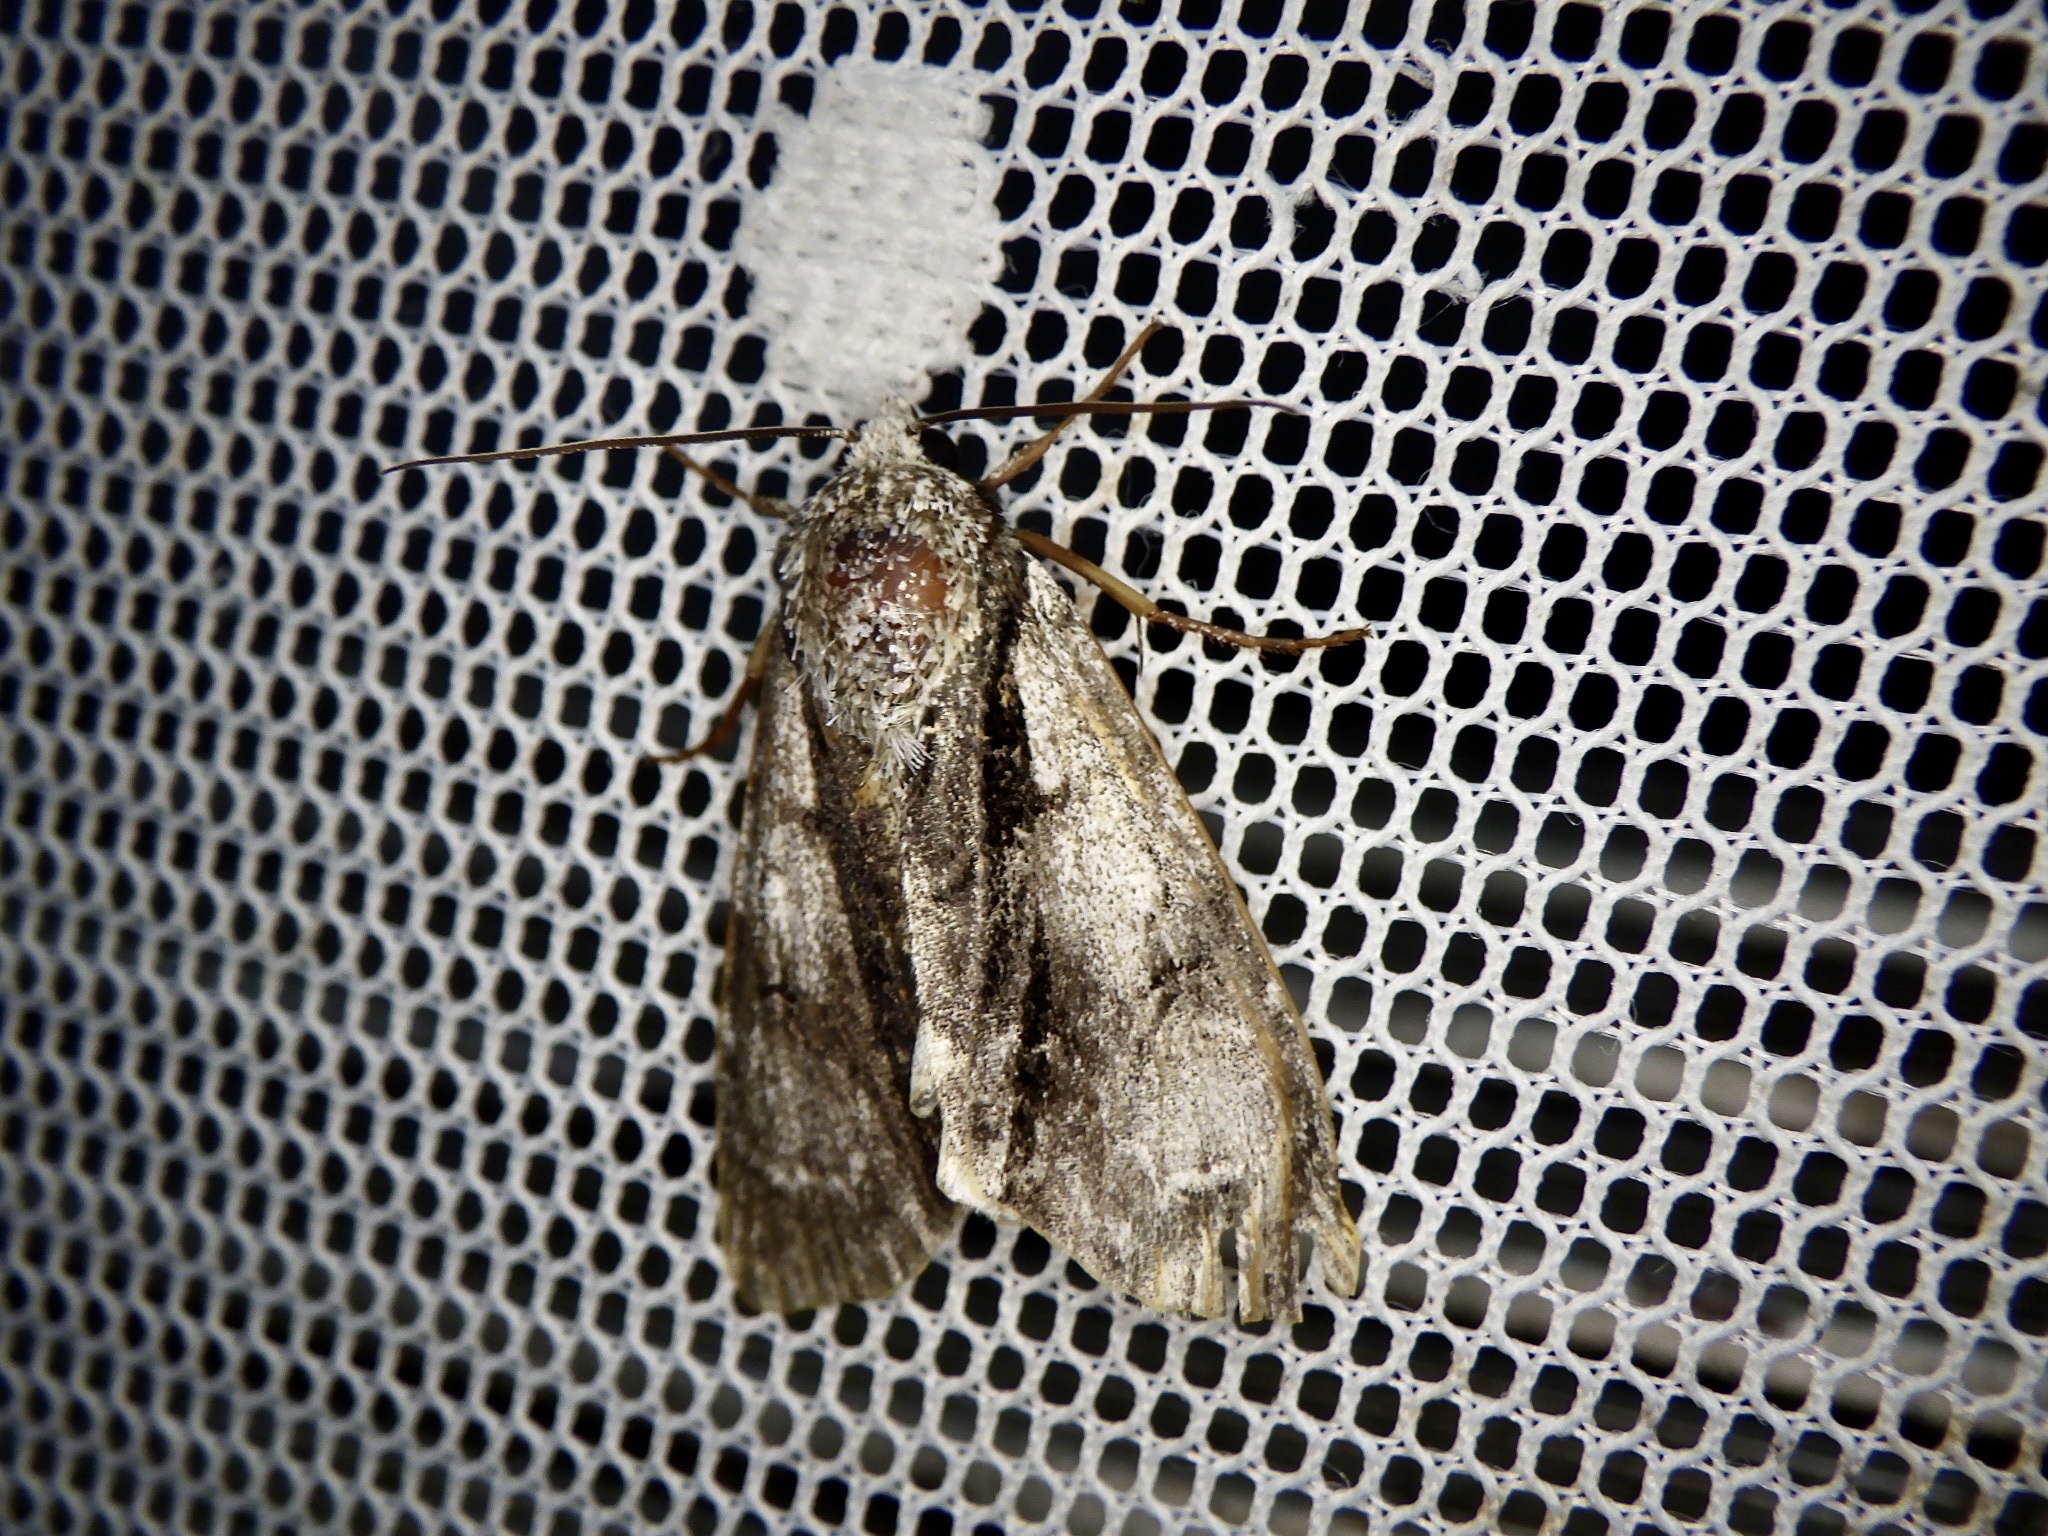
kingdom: Animalia
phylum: Arthropoda
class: Insecta
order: Lepidoptera
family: Noctuidae
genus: Acronicta
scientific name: Acronicta alni
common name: Alder moth
